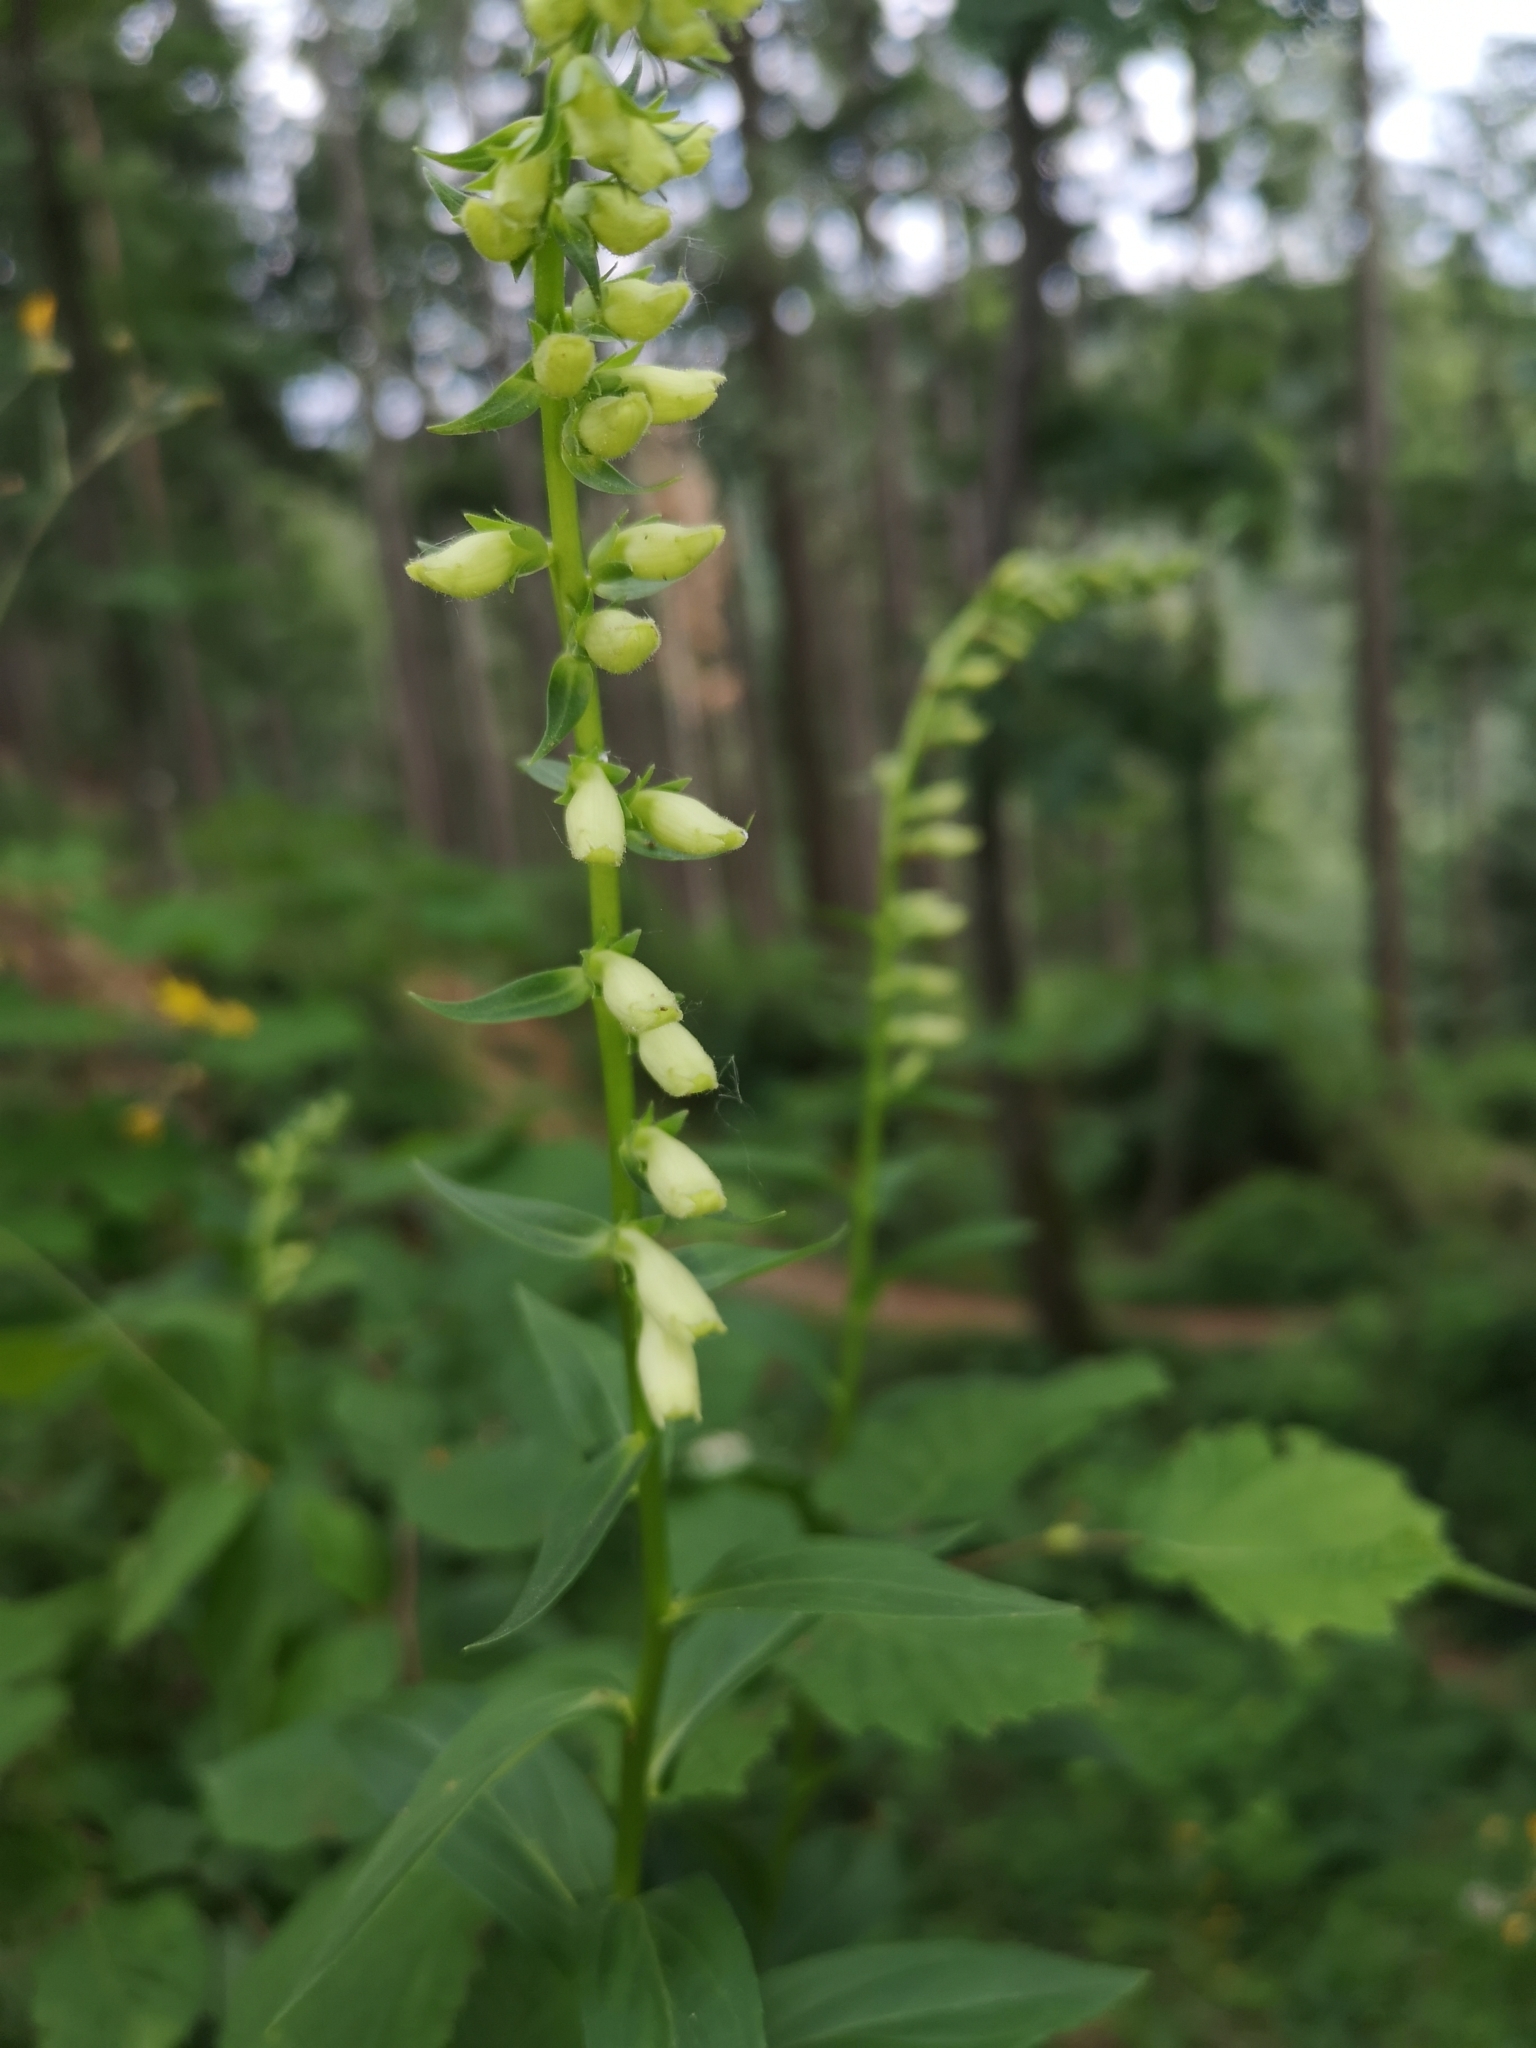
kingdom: Plantae
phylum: Tracheophyta
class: Magnoliopsida
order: Lamiales
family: Plantaginaceae
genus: Digitalis
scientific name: Digitalis lutea
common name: Straw foxglove
